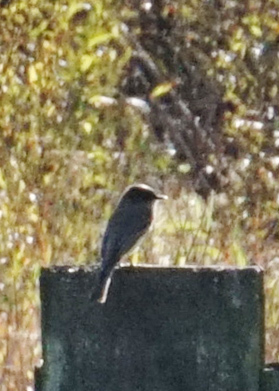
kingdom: Animalia
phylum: Chordata
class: Aves
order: Passeriformes
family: Tyrannidae
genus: Sayornis
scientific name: Sayornis phoebe
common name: Eastern phoebe
